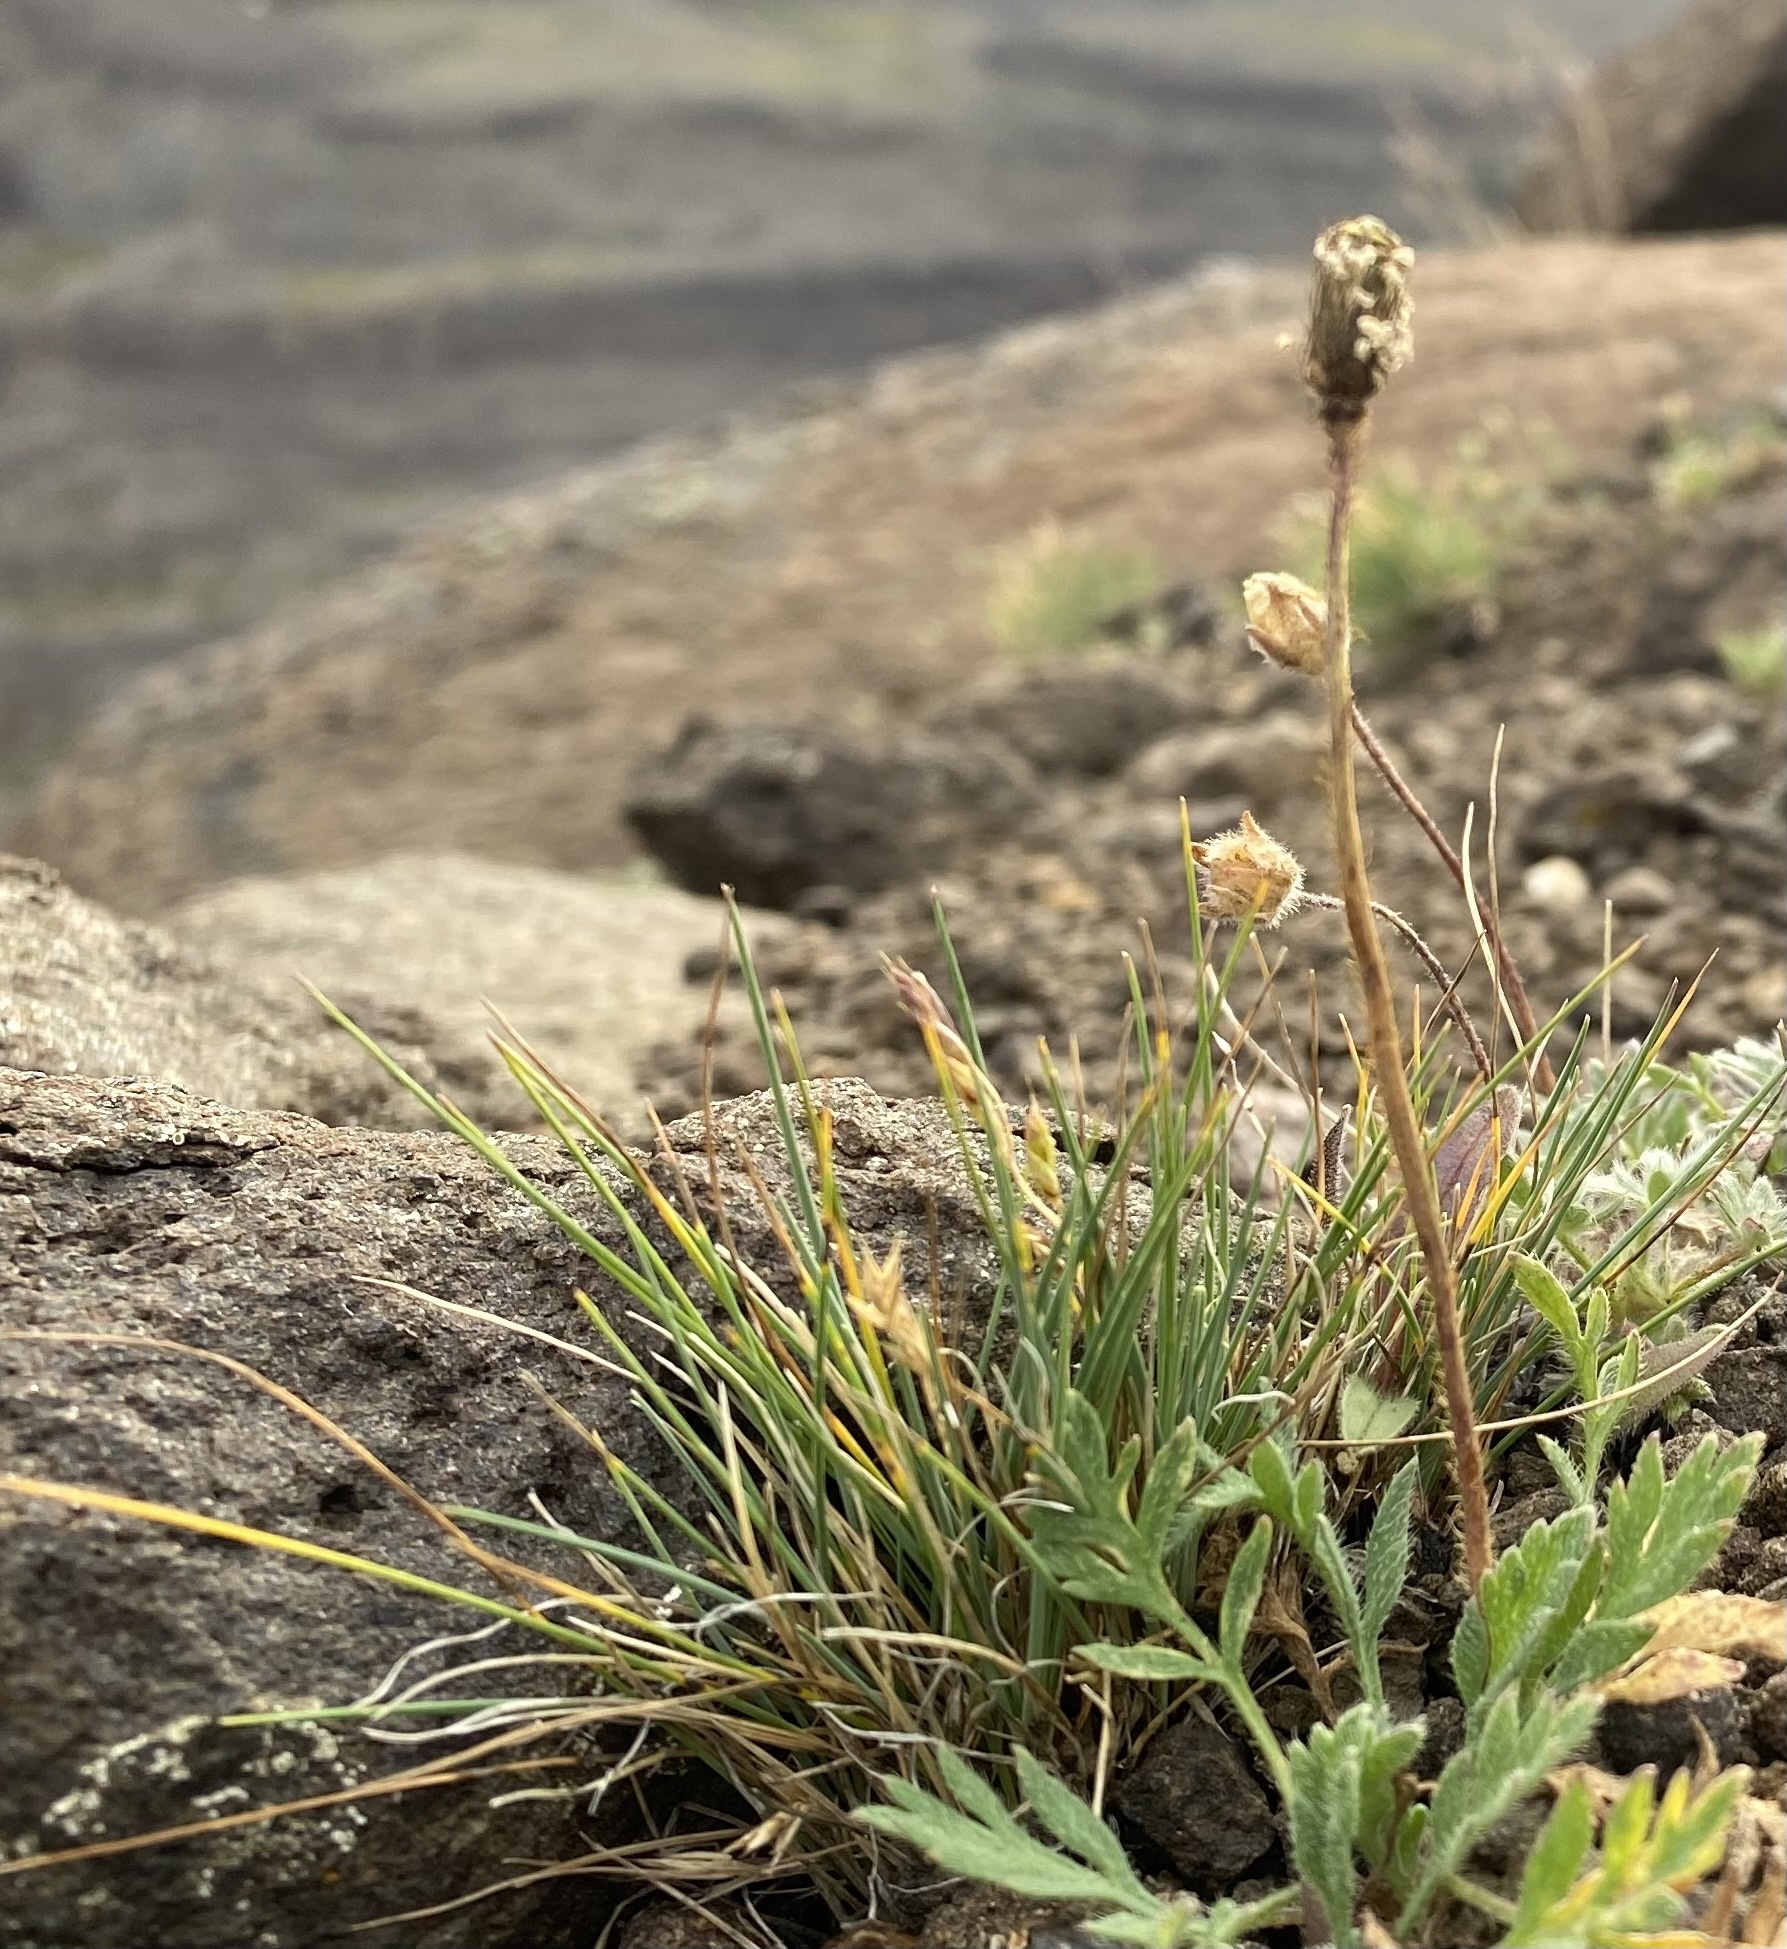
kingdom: Plantae
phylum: Tracheophyta
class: Liliopsida
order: Poales
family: Poaceae
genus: Festuca
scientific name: Festuca auriculata
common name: Eared fescue
